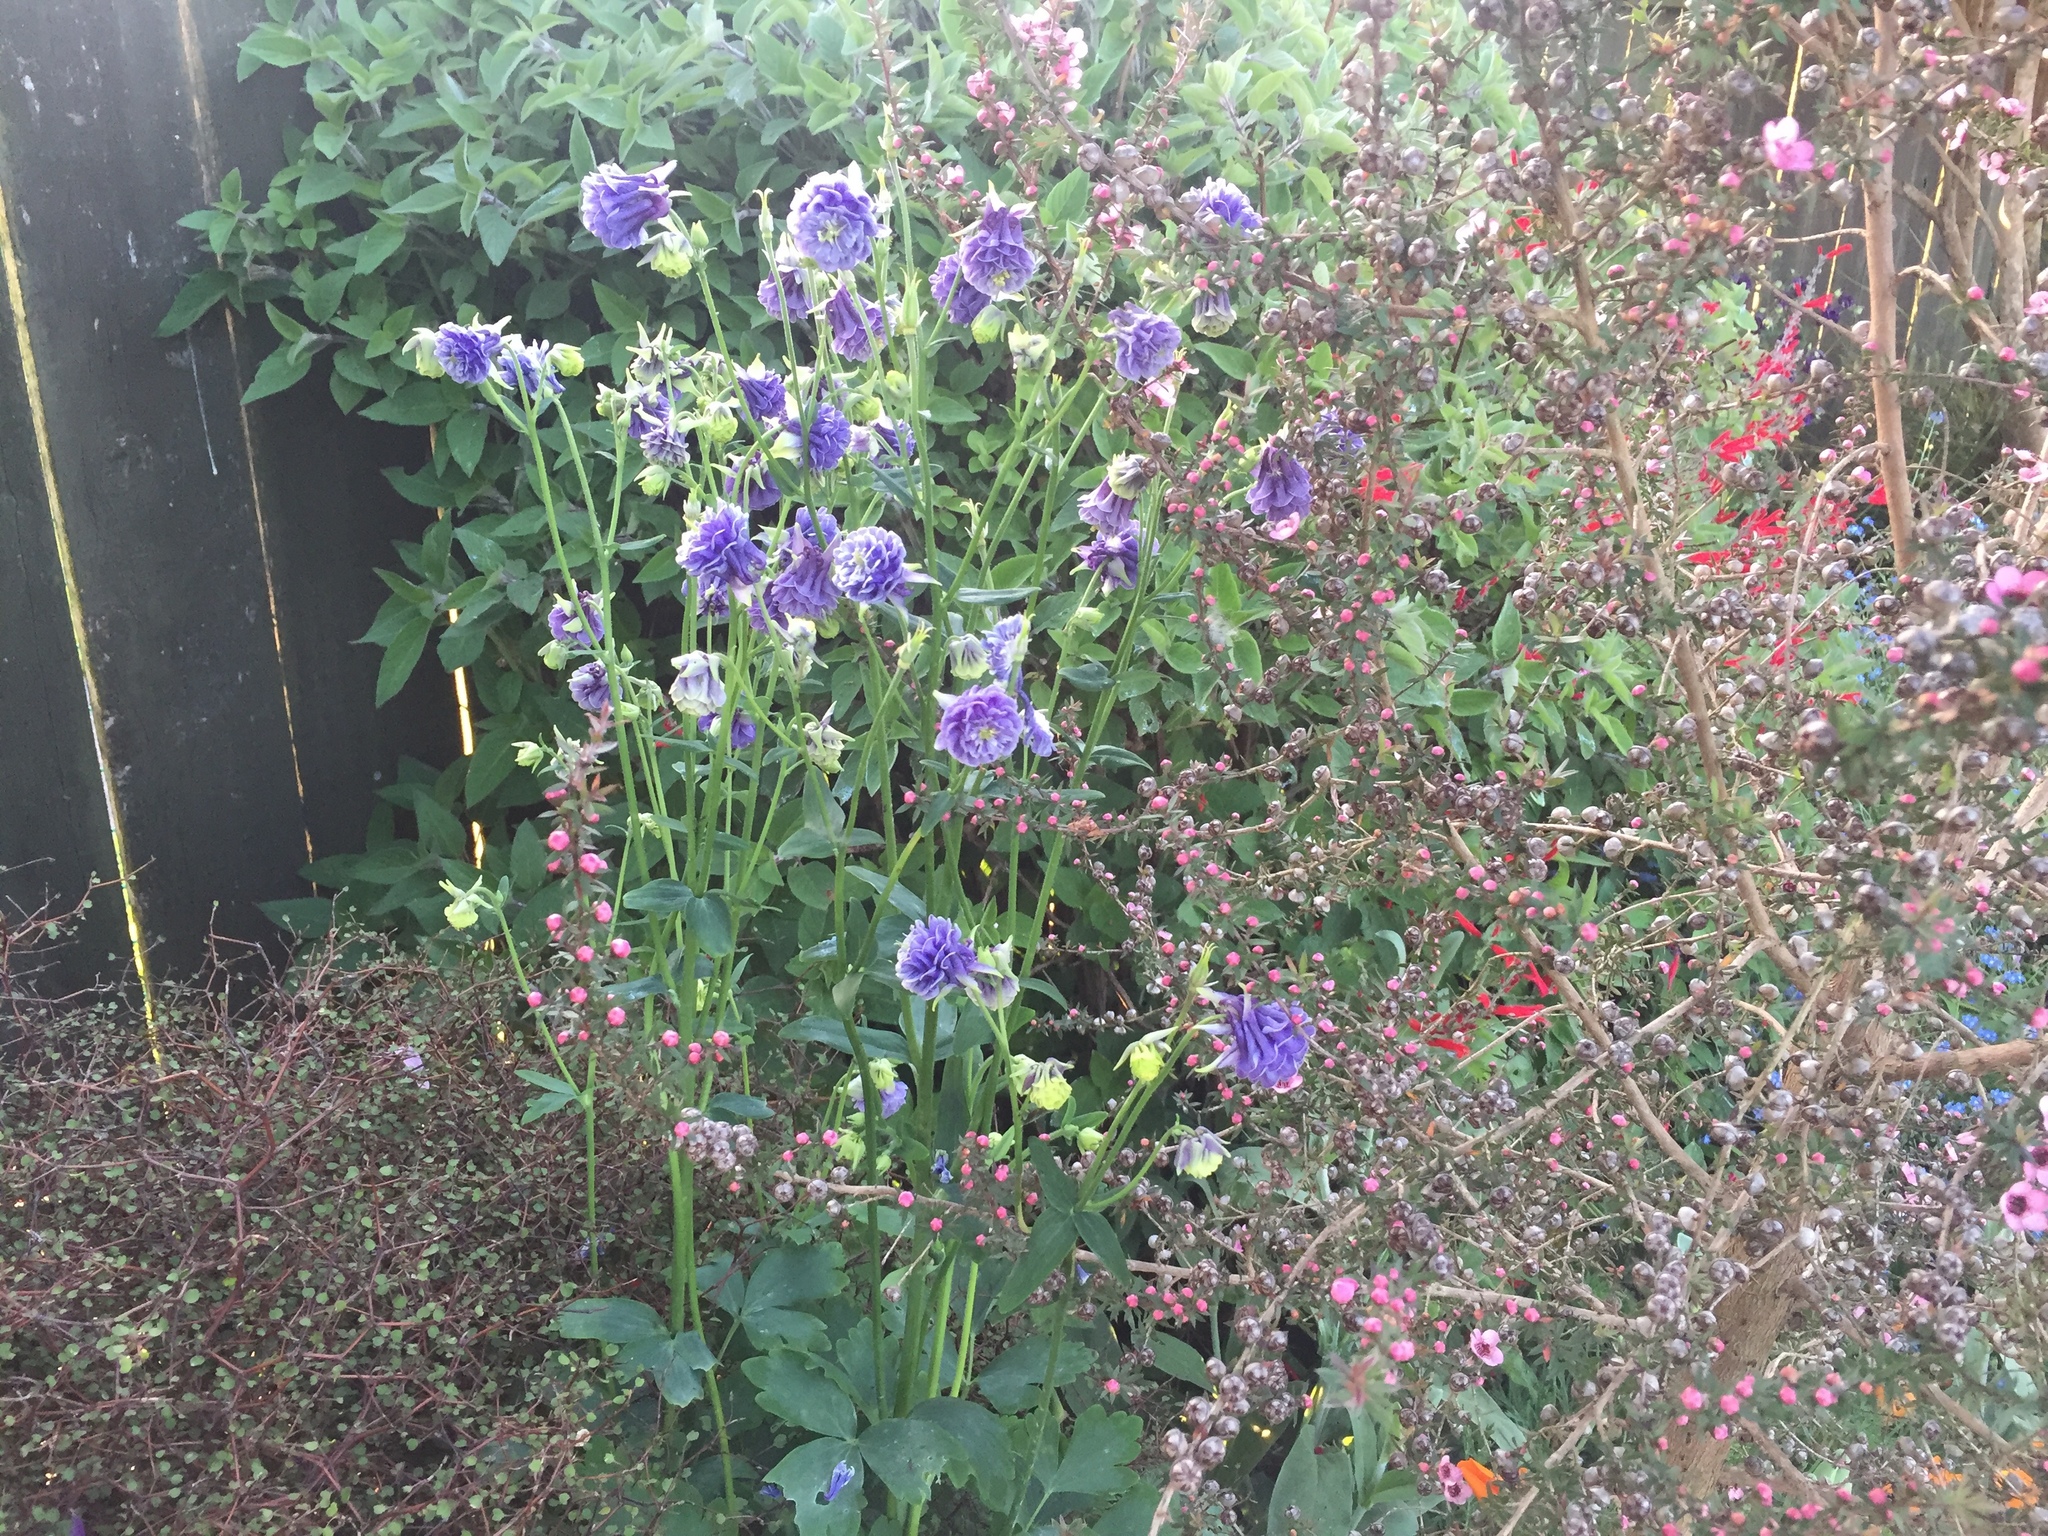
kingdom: Plantae
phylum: Tracheophyta
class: Magnoliopsida
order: Ranunculales
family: Ranunculaceae
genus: Aquilegia
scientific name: Aquilegia vulgaris
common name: Columbine
